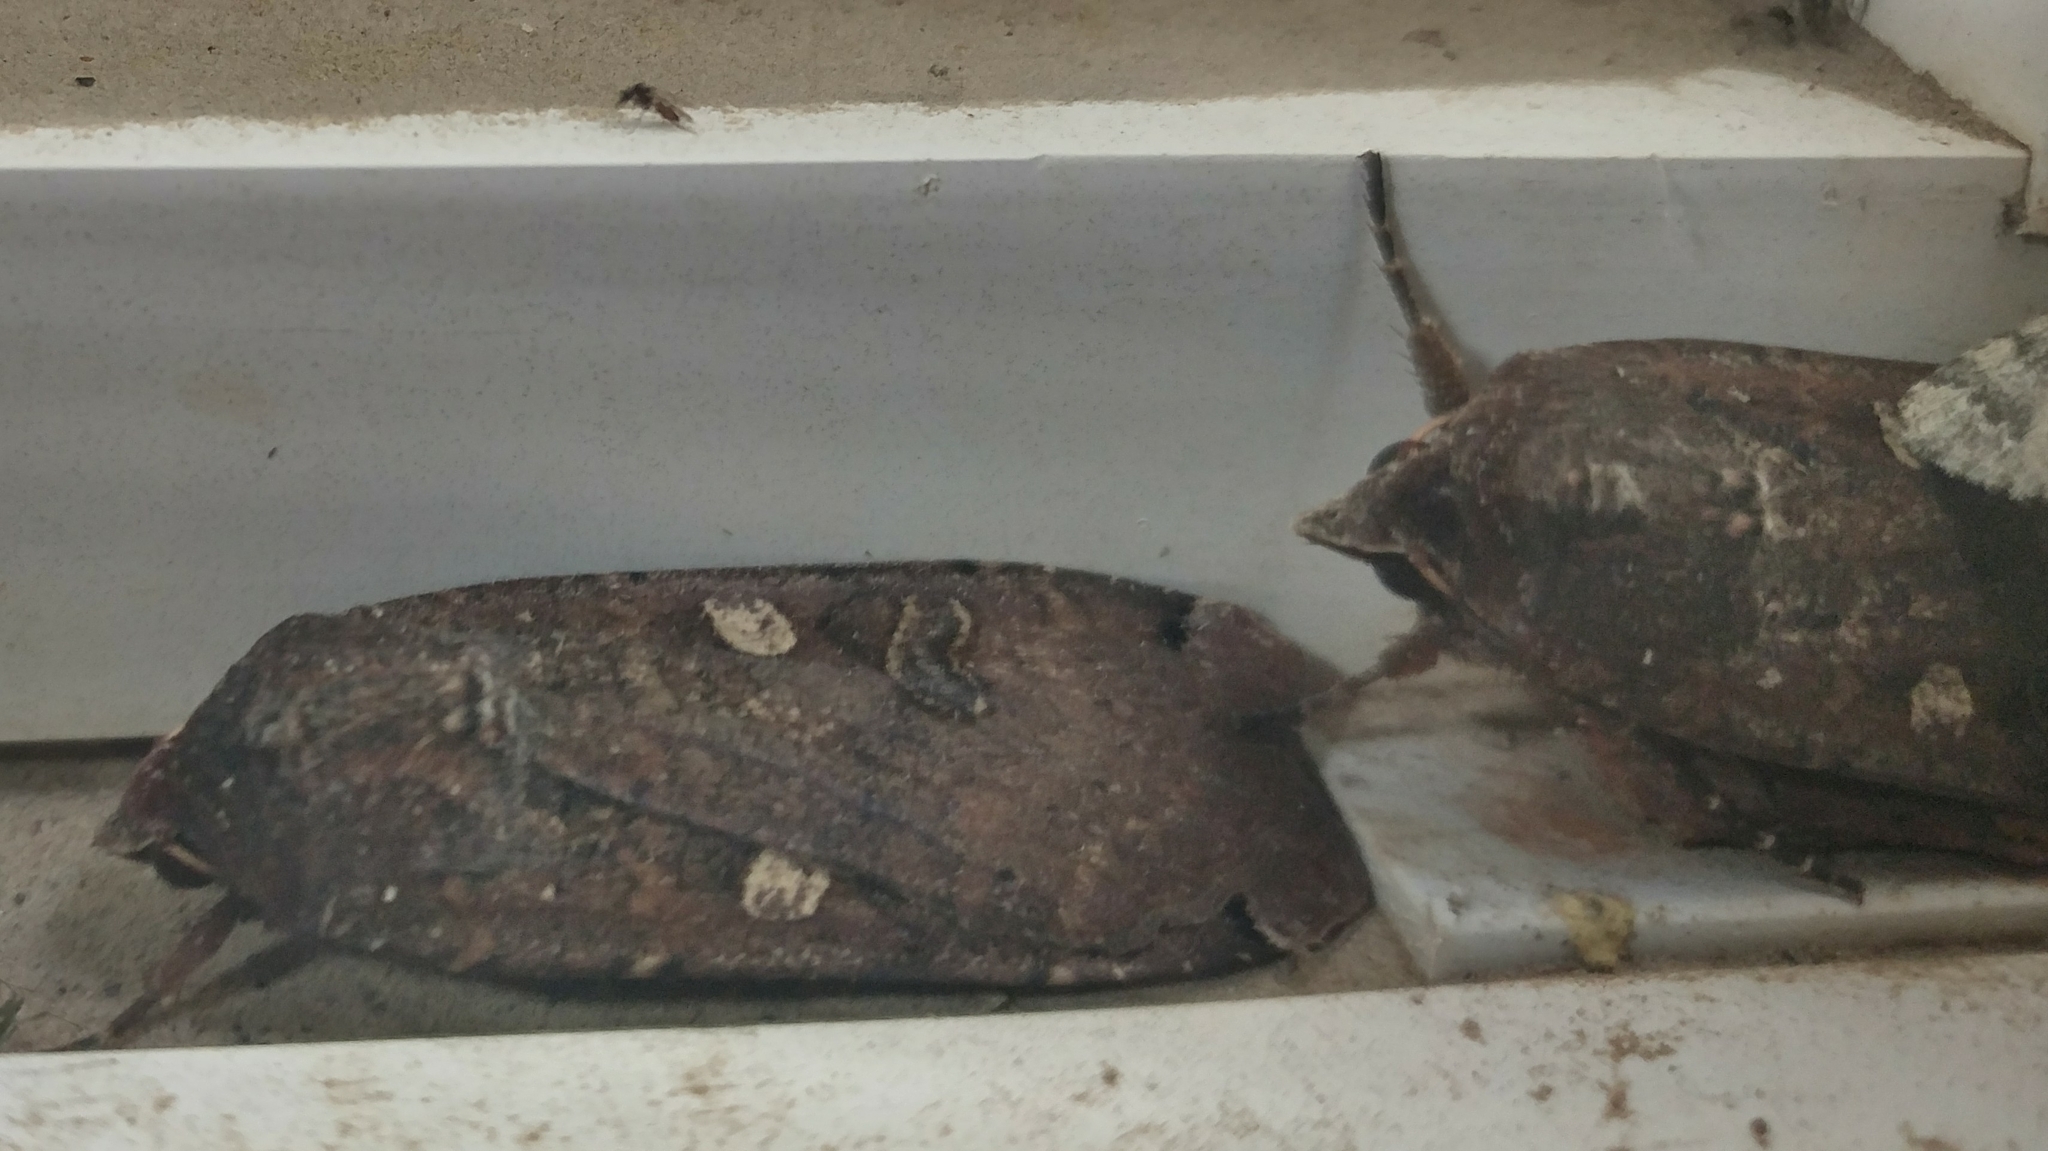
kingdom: Animalia
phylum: Arthropoda
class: Insecta
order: Lepidoptera
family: Noctuidae
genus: Noctua
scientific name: Noctua pronuba
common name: Large yellow underwing
